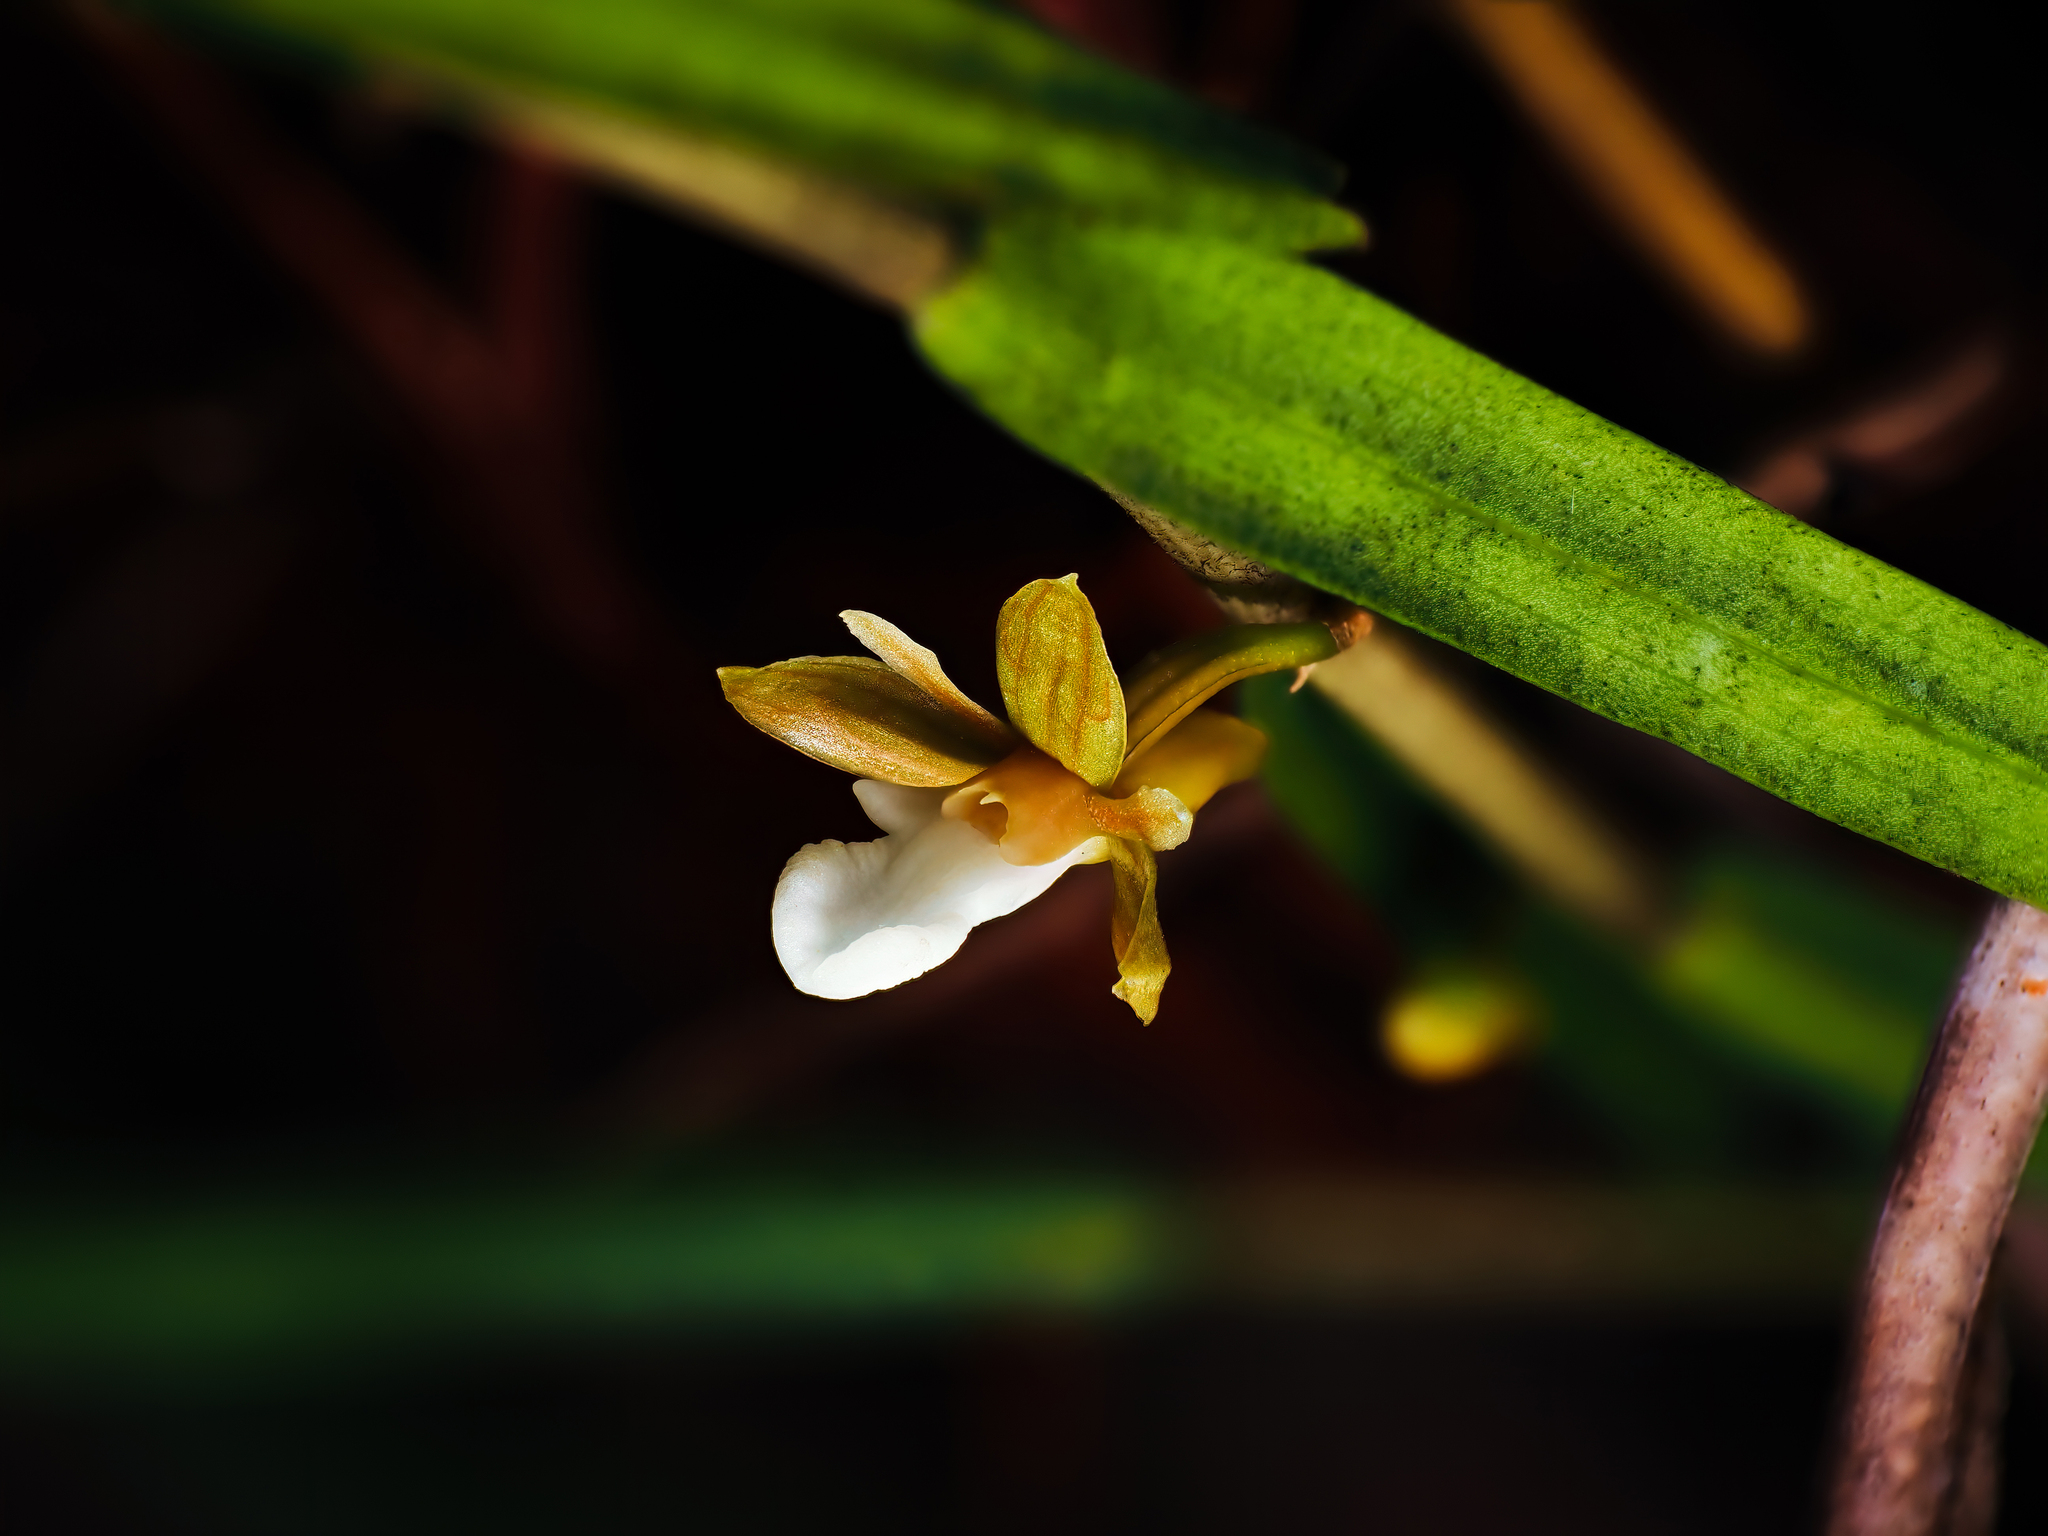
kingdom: Plantae
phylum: Tracheophyta
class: Liliopsida
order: Asparagales
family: Orchidaceae
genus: Dendrobium
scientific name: Dendrobium lobbii
